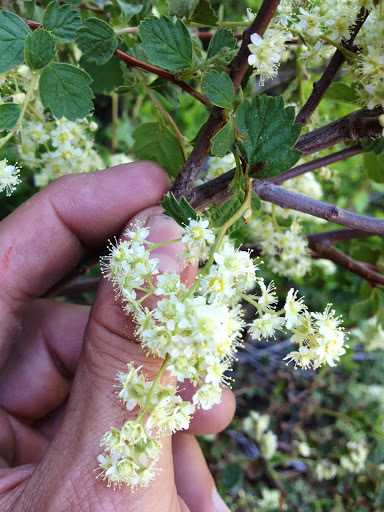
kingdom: Plantae
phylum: Tracheophyta
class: Magnoliopsida
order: Rosales
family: Rosaceae
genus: Holodiscus
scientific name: Holodiscus discolor
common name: Oceanspray
